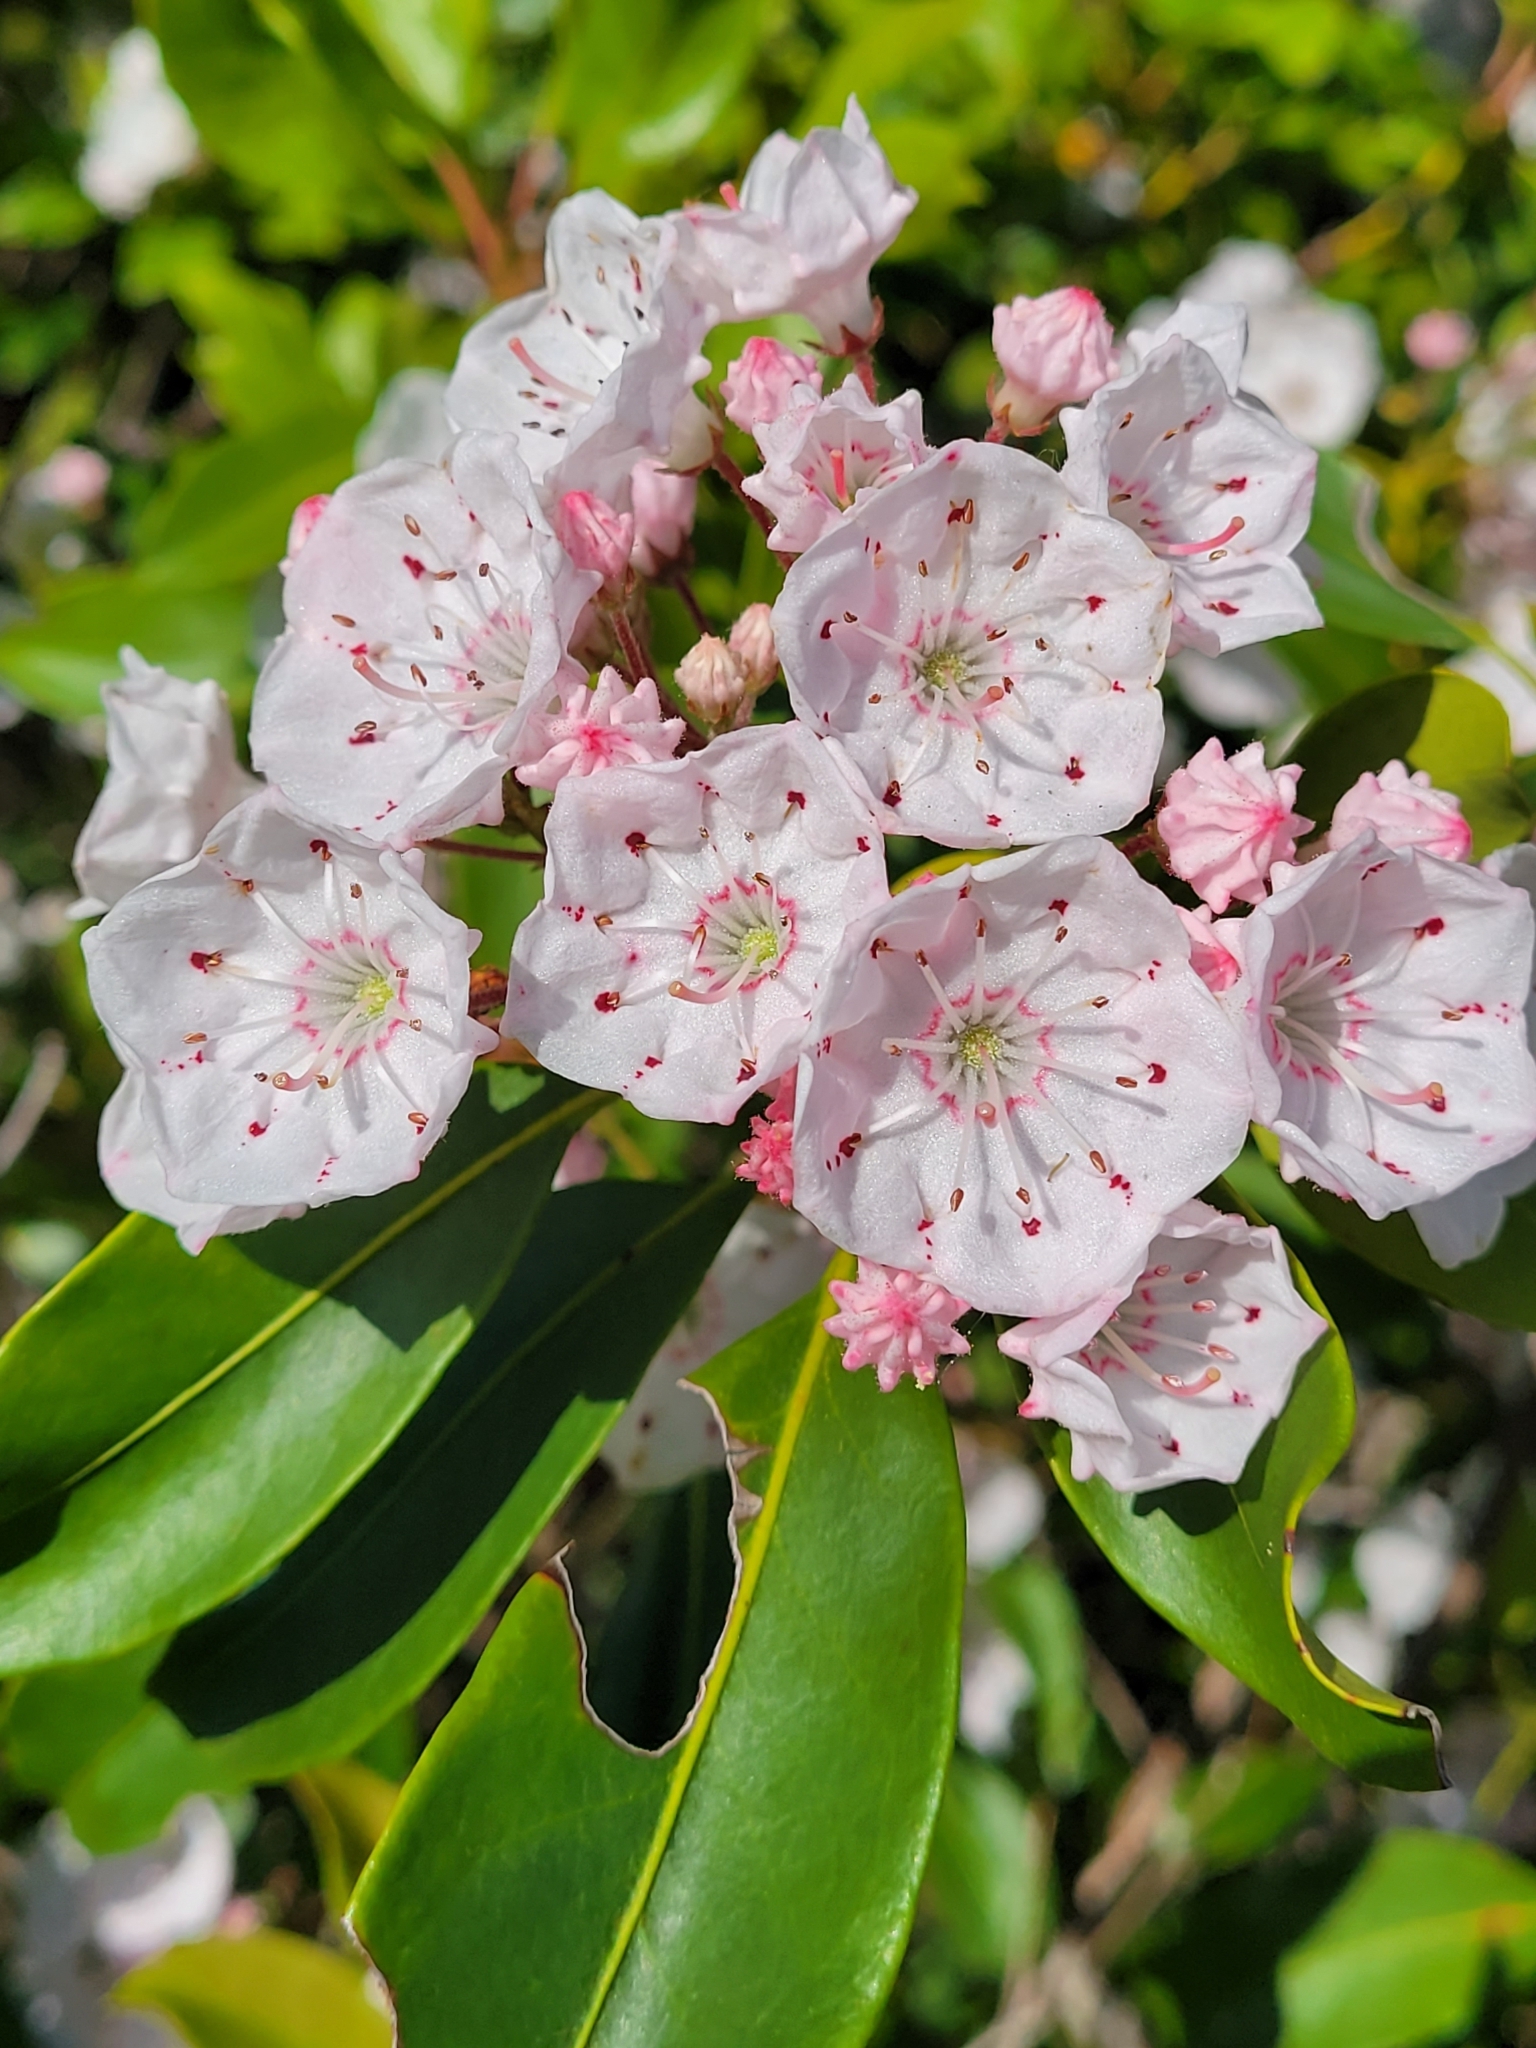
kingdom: Plantae
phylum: Tracheophyta
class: Magnoliopsida
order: Ericales
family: Ericaceae
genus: Kalmia
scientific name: Kalmia latifolia
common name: Mountain-laurel
